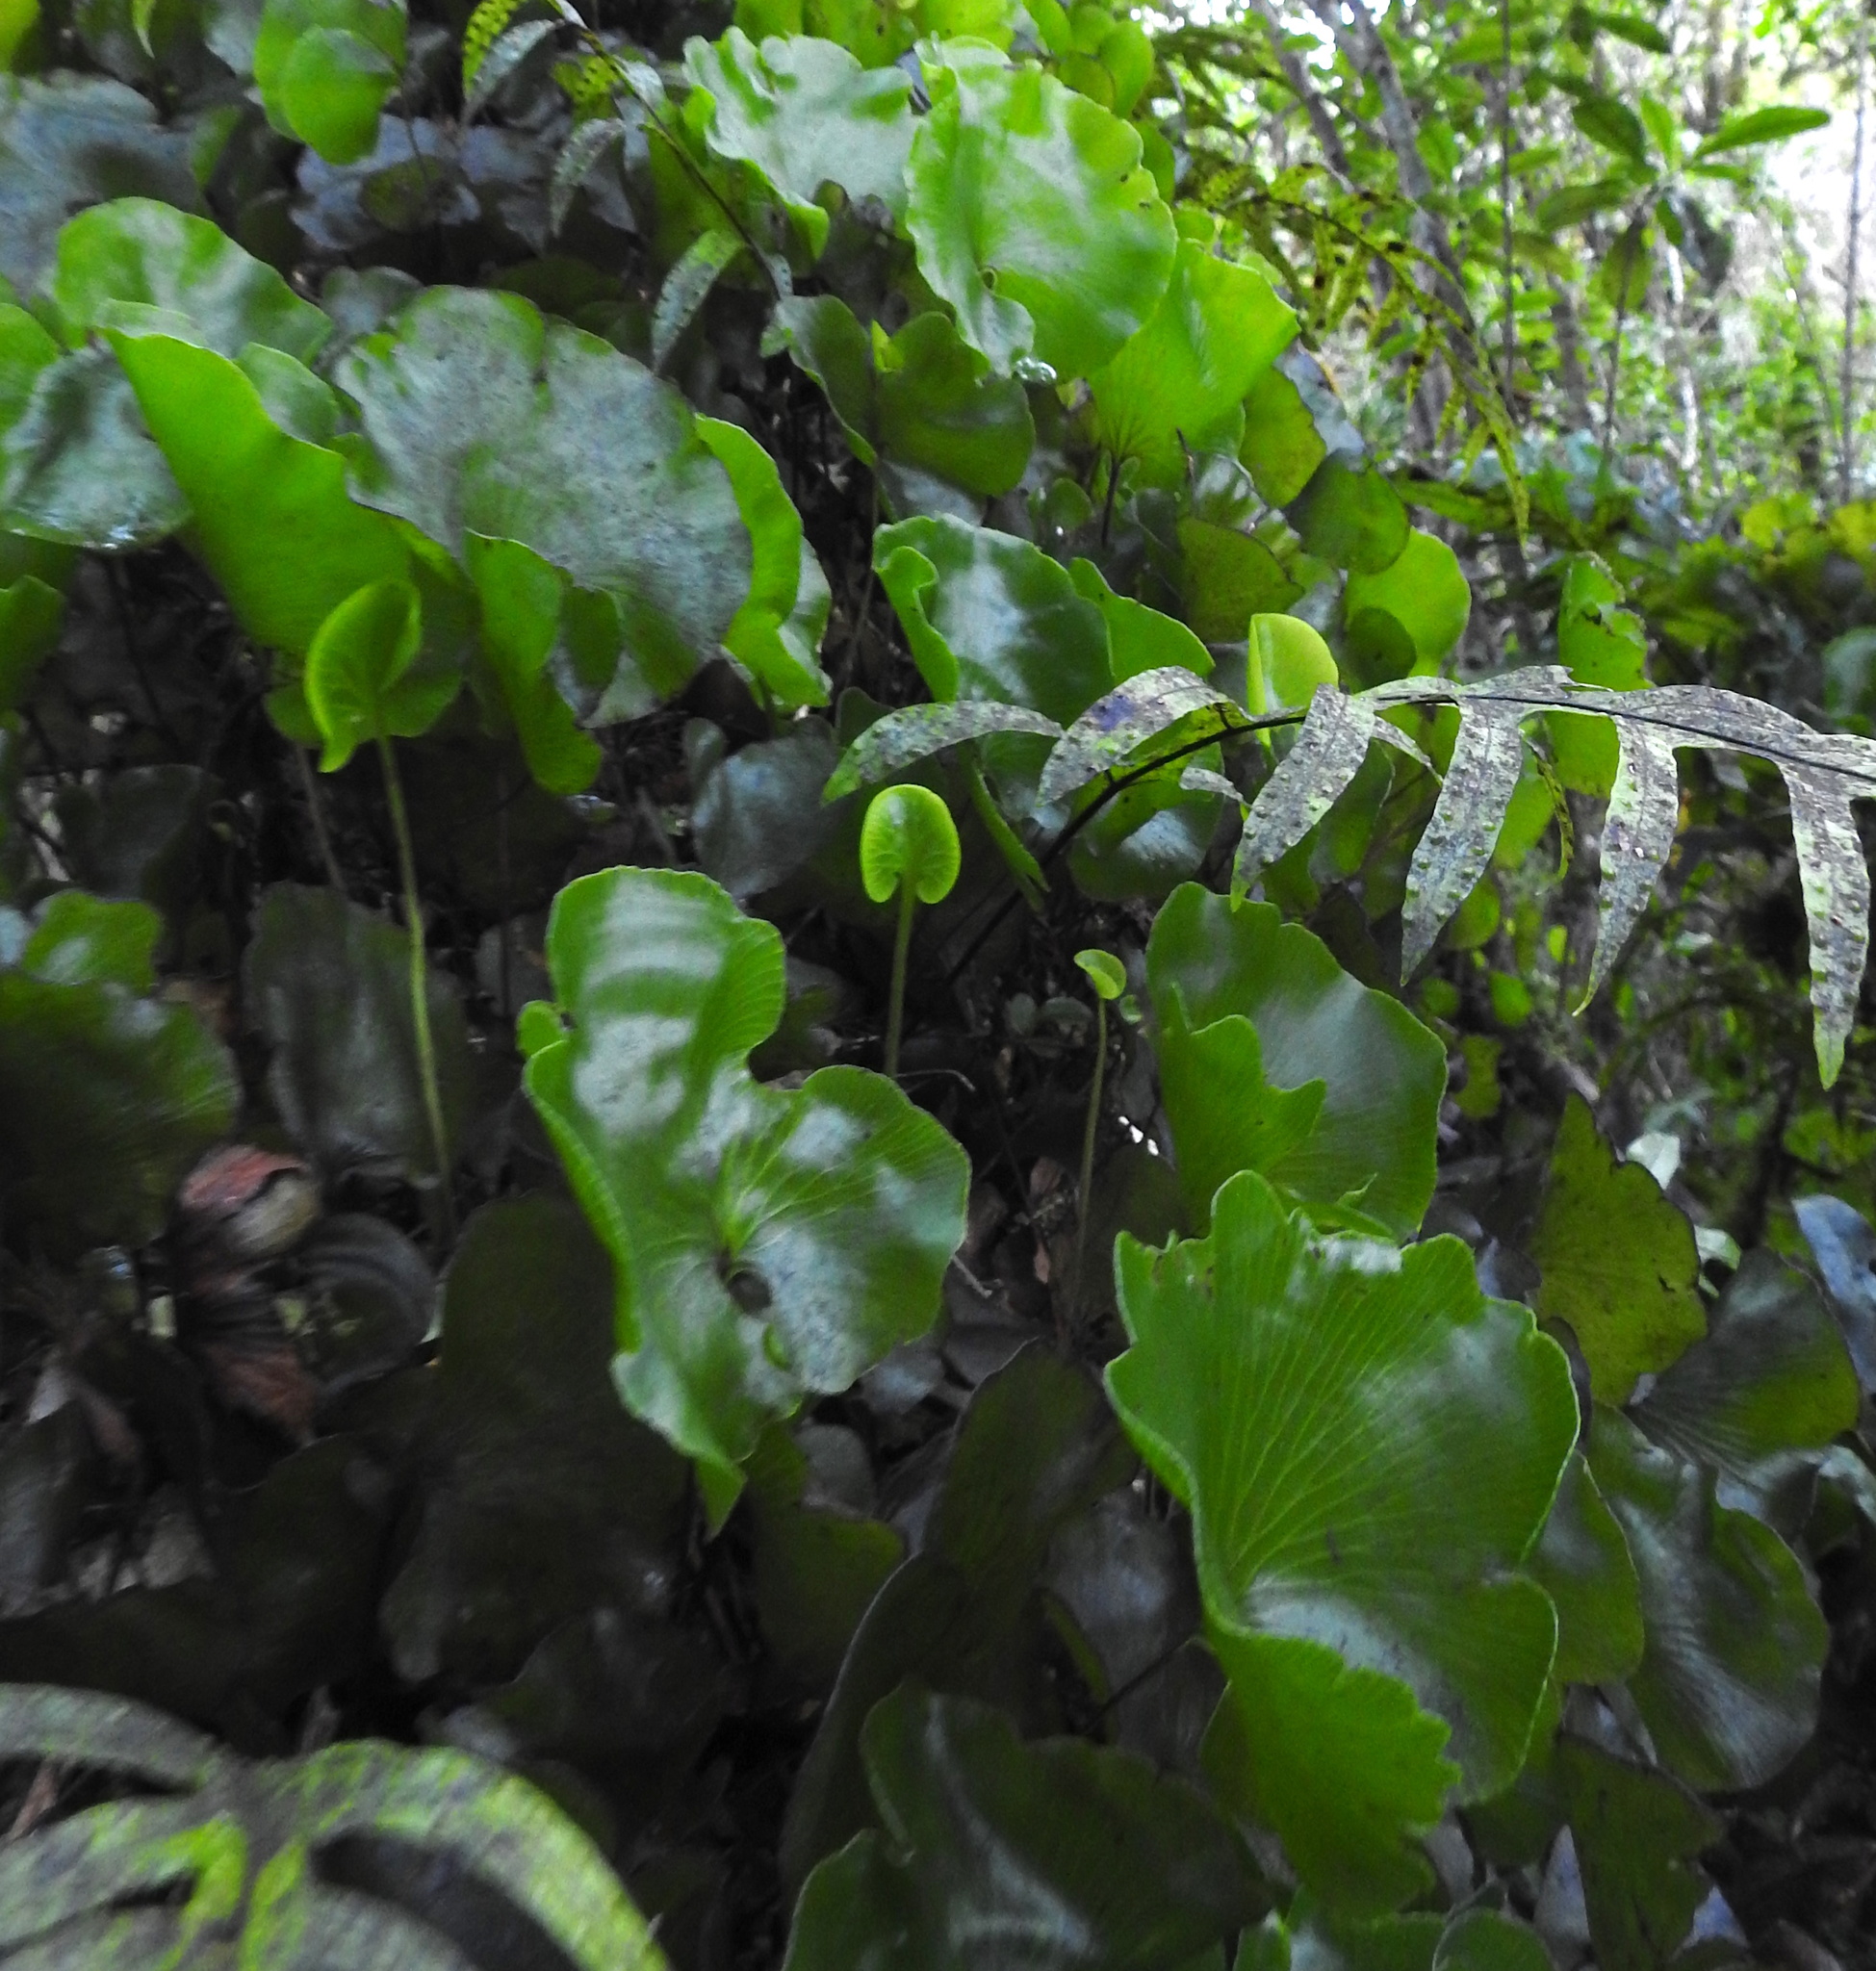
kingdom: Plantae
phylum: Tracheophyta
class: Polypodiopsida
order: Hymenophyllales
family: Hymenophyllaceae
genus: Hymenophyllum
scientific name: Hymenophyllum nephrophyllum
